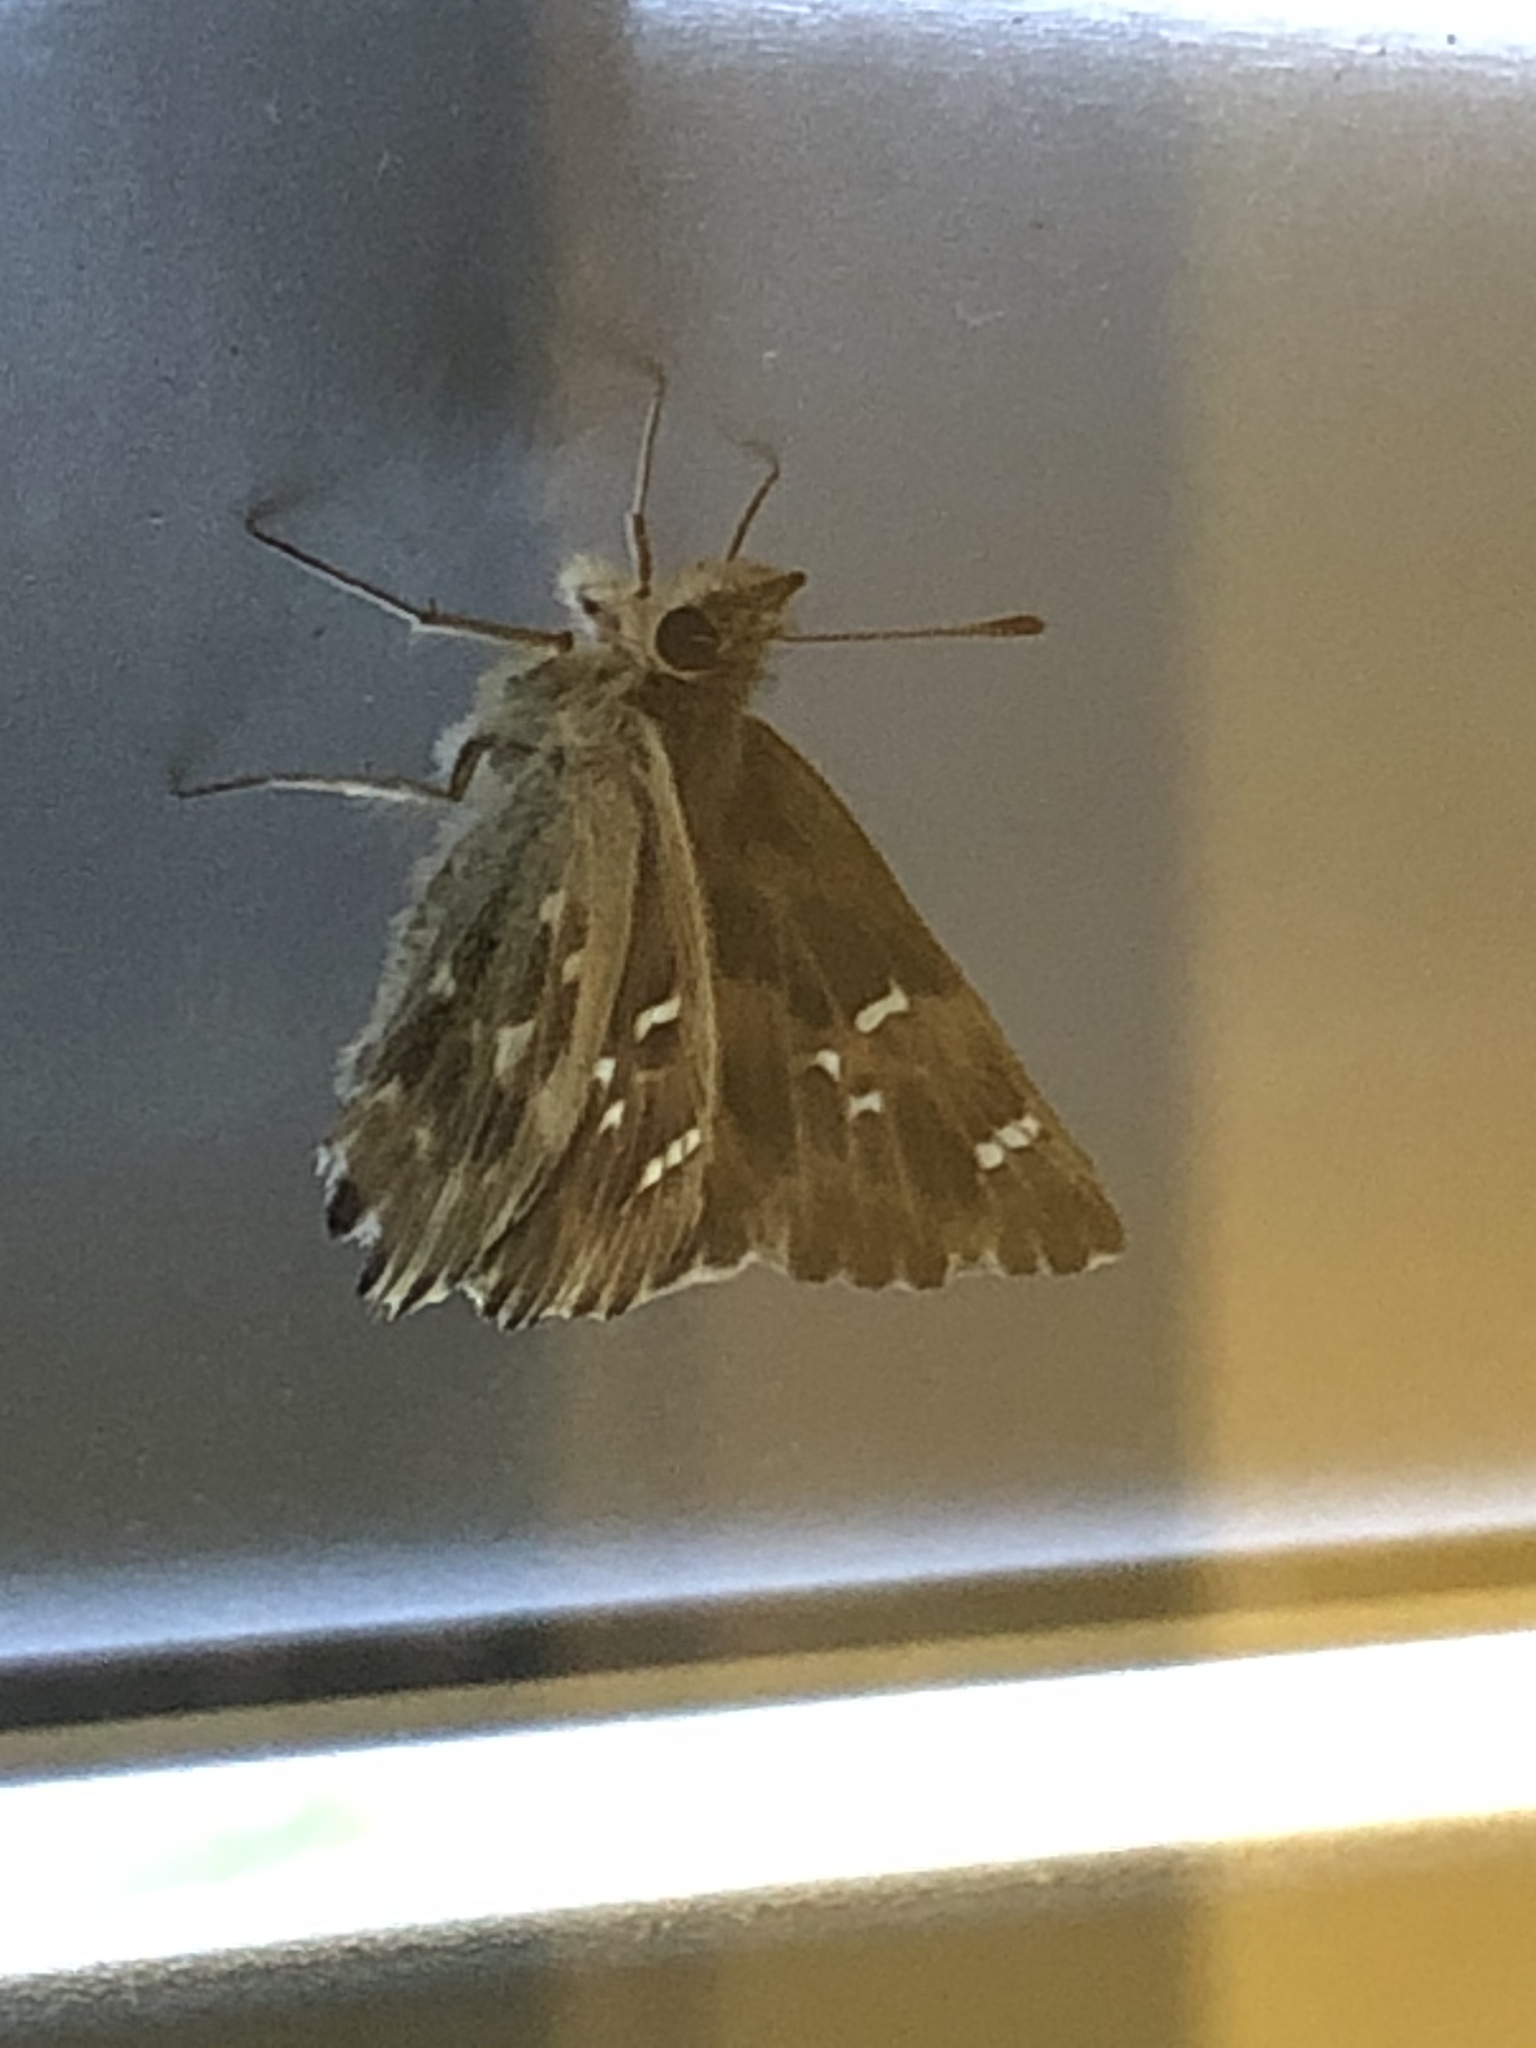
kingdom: Animalia
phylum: Arthropoda
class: Insecta
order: Lepidoptera
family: Hesperiidae
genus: Carcharodus
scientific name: Carcharodus alceae
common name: Mallow skipper
